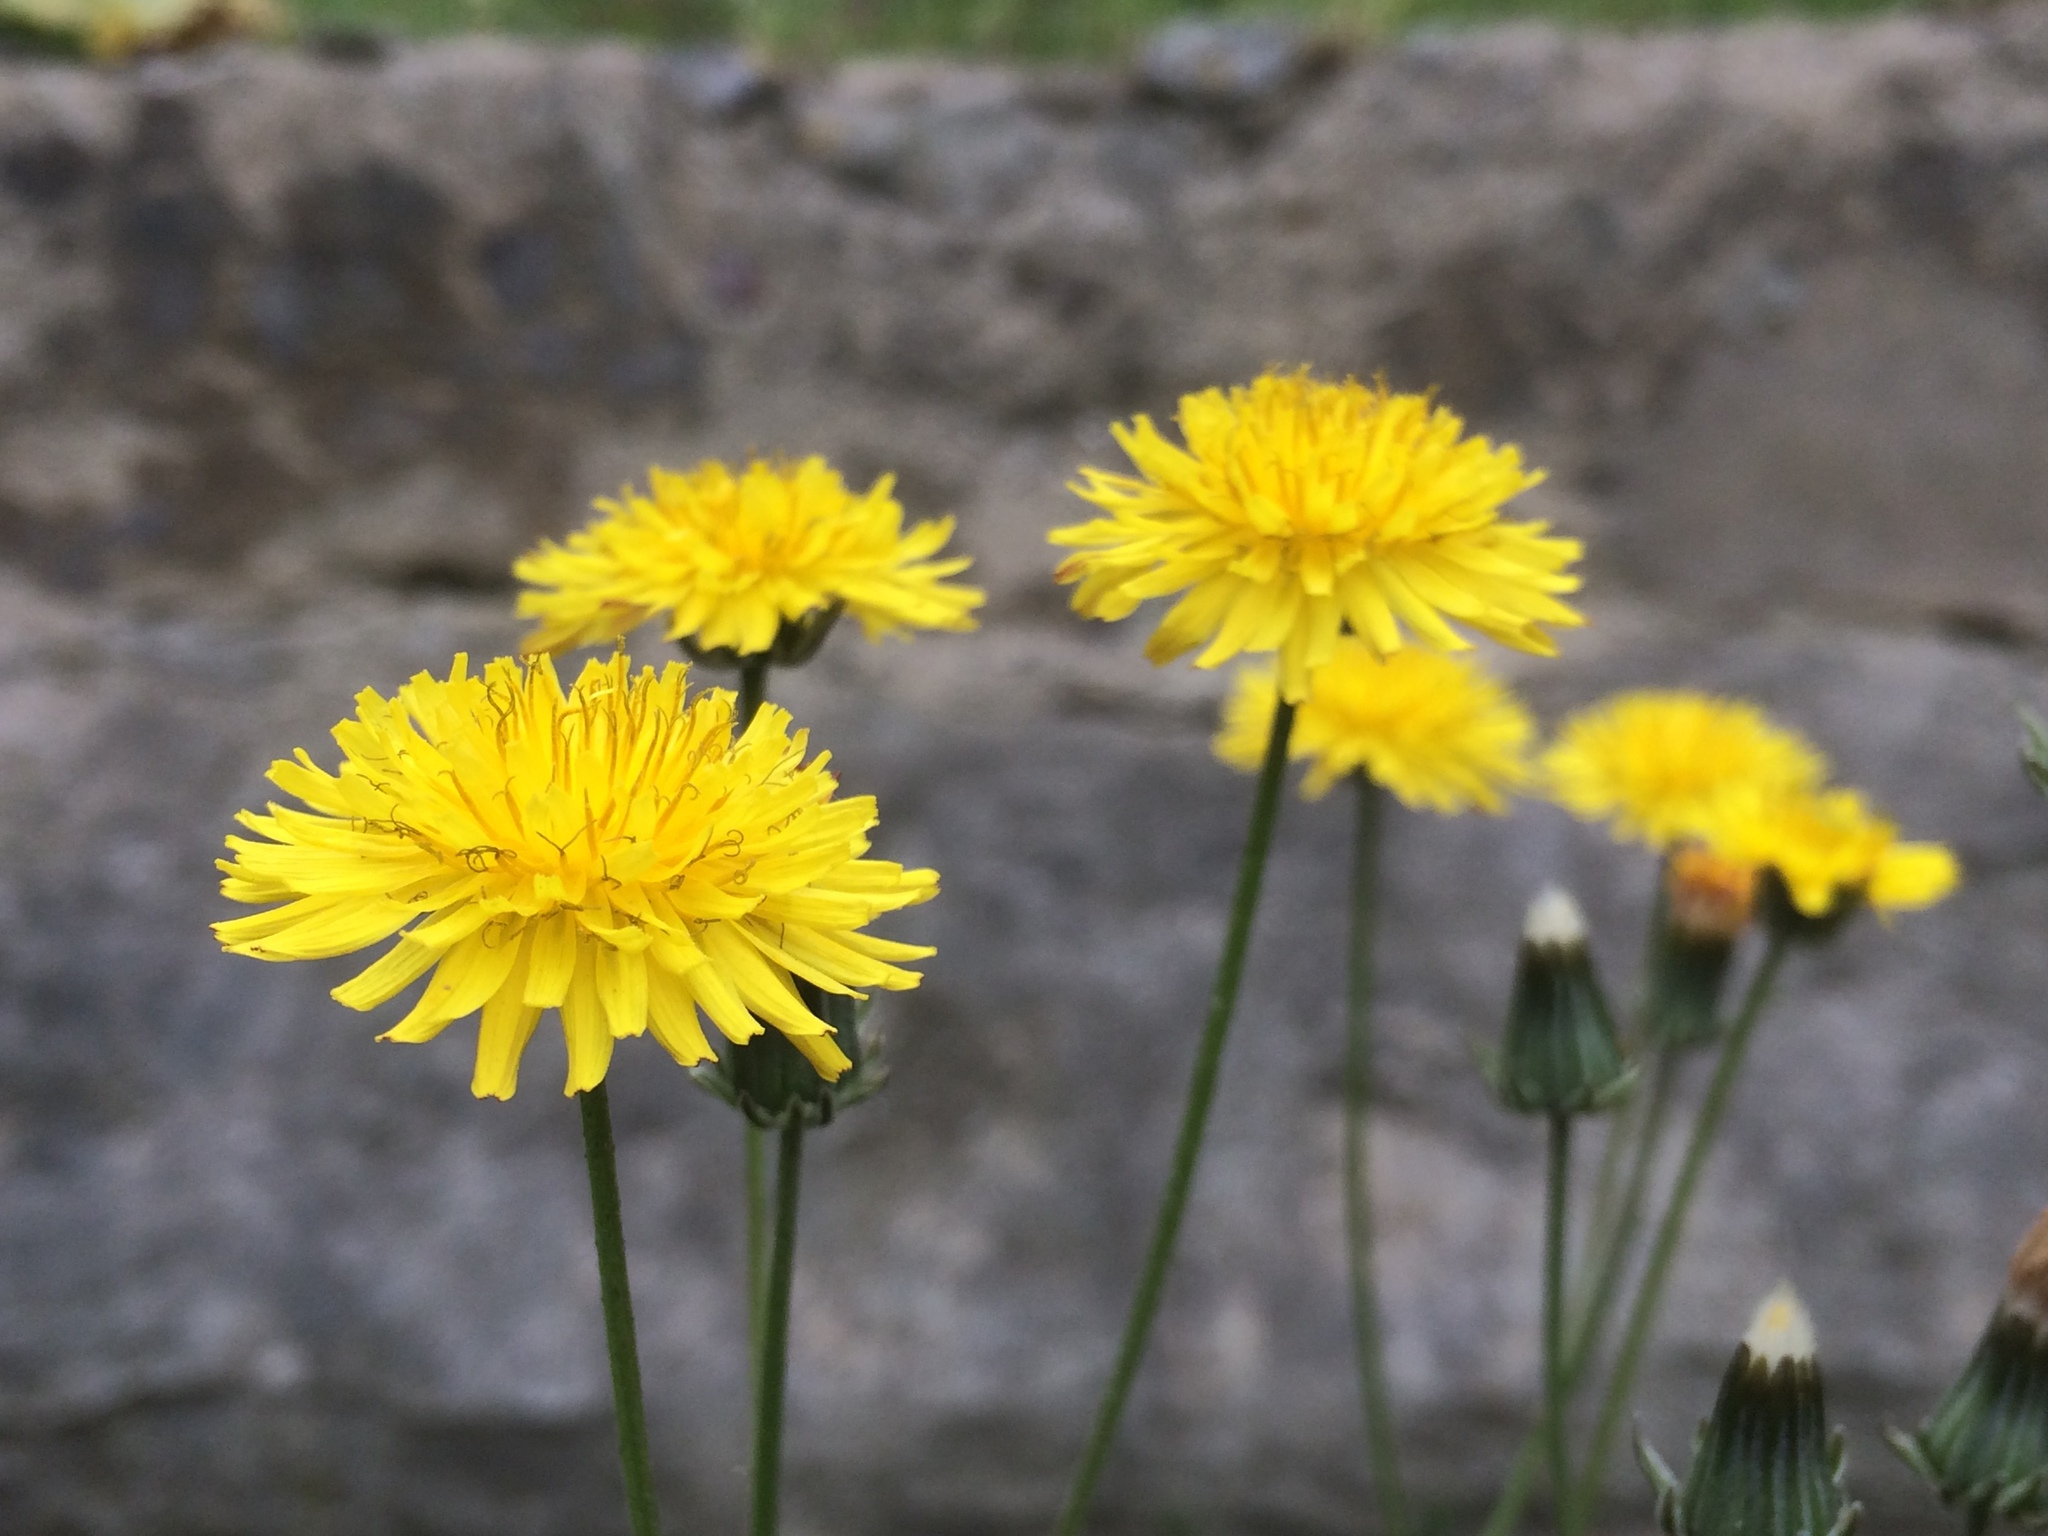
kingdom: Plantae
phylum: Tracheophyta
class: Magnoliopsida
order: Asterales
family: Asteraceae
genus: Crepis
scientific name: Crepis vesicaria
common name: Beaked hawksbeard
